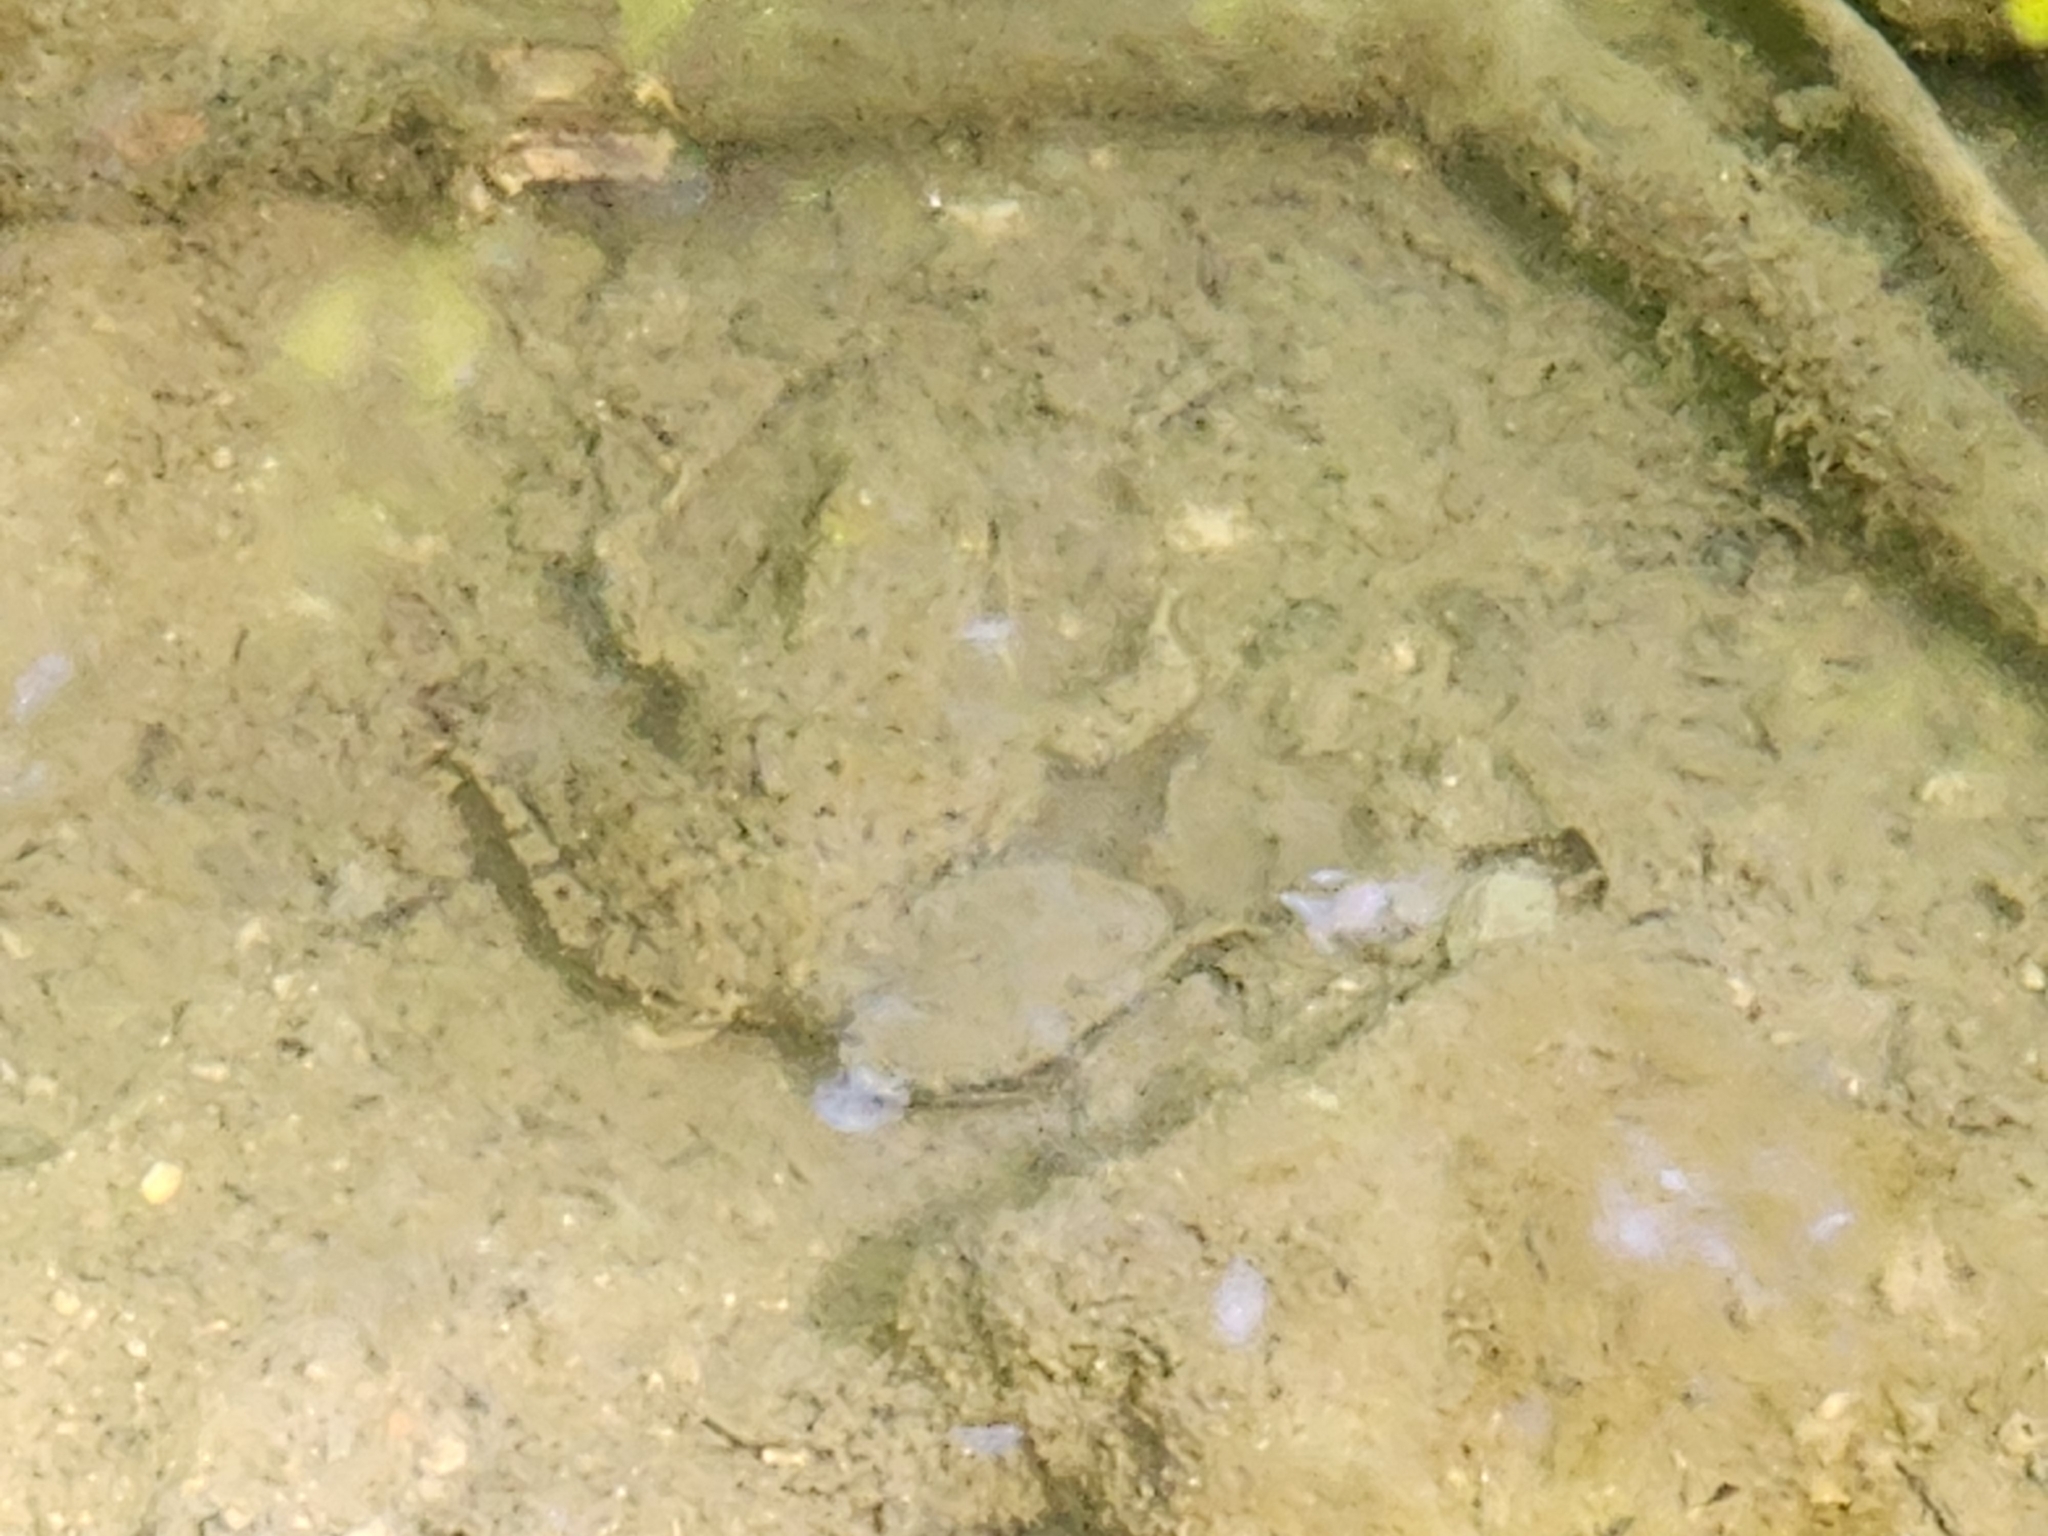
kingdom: Animalia
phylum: Chordata
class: Amphibia
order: Anura
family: Ranidae
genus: Lithobates
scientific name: Lithobates clamitans
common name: Green frog
